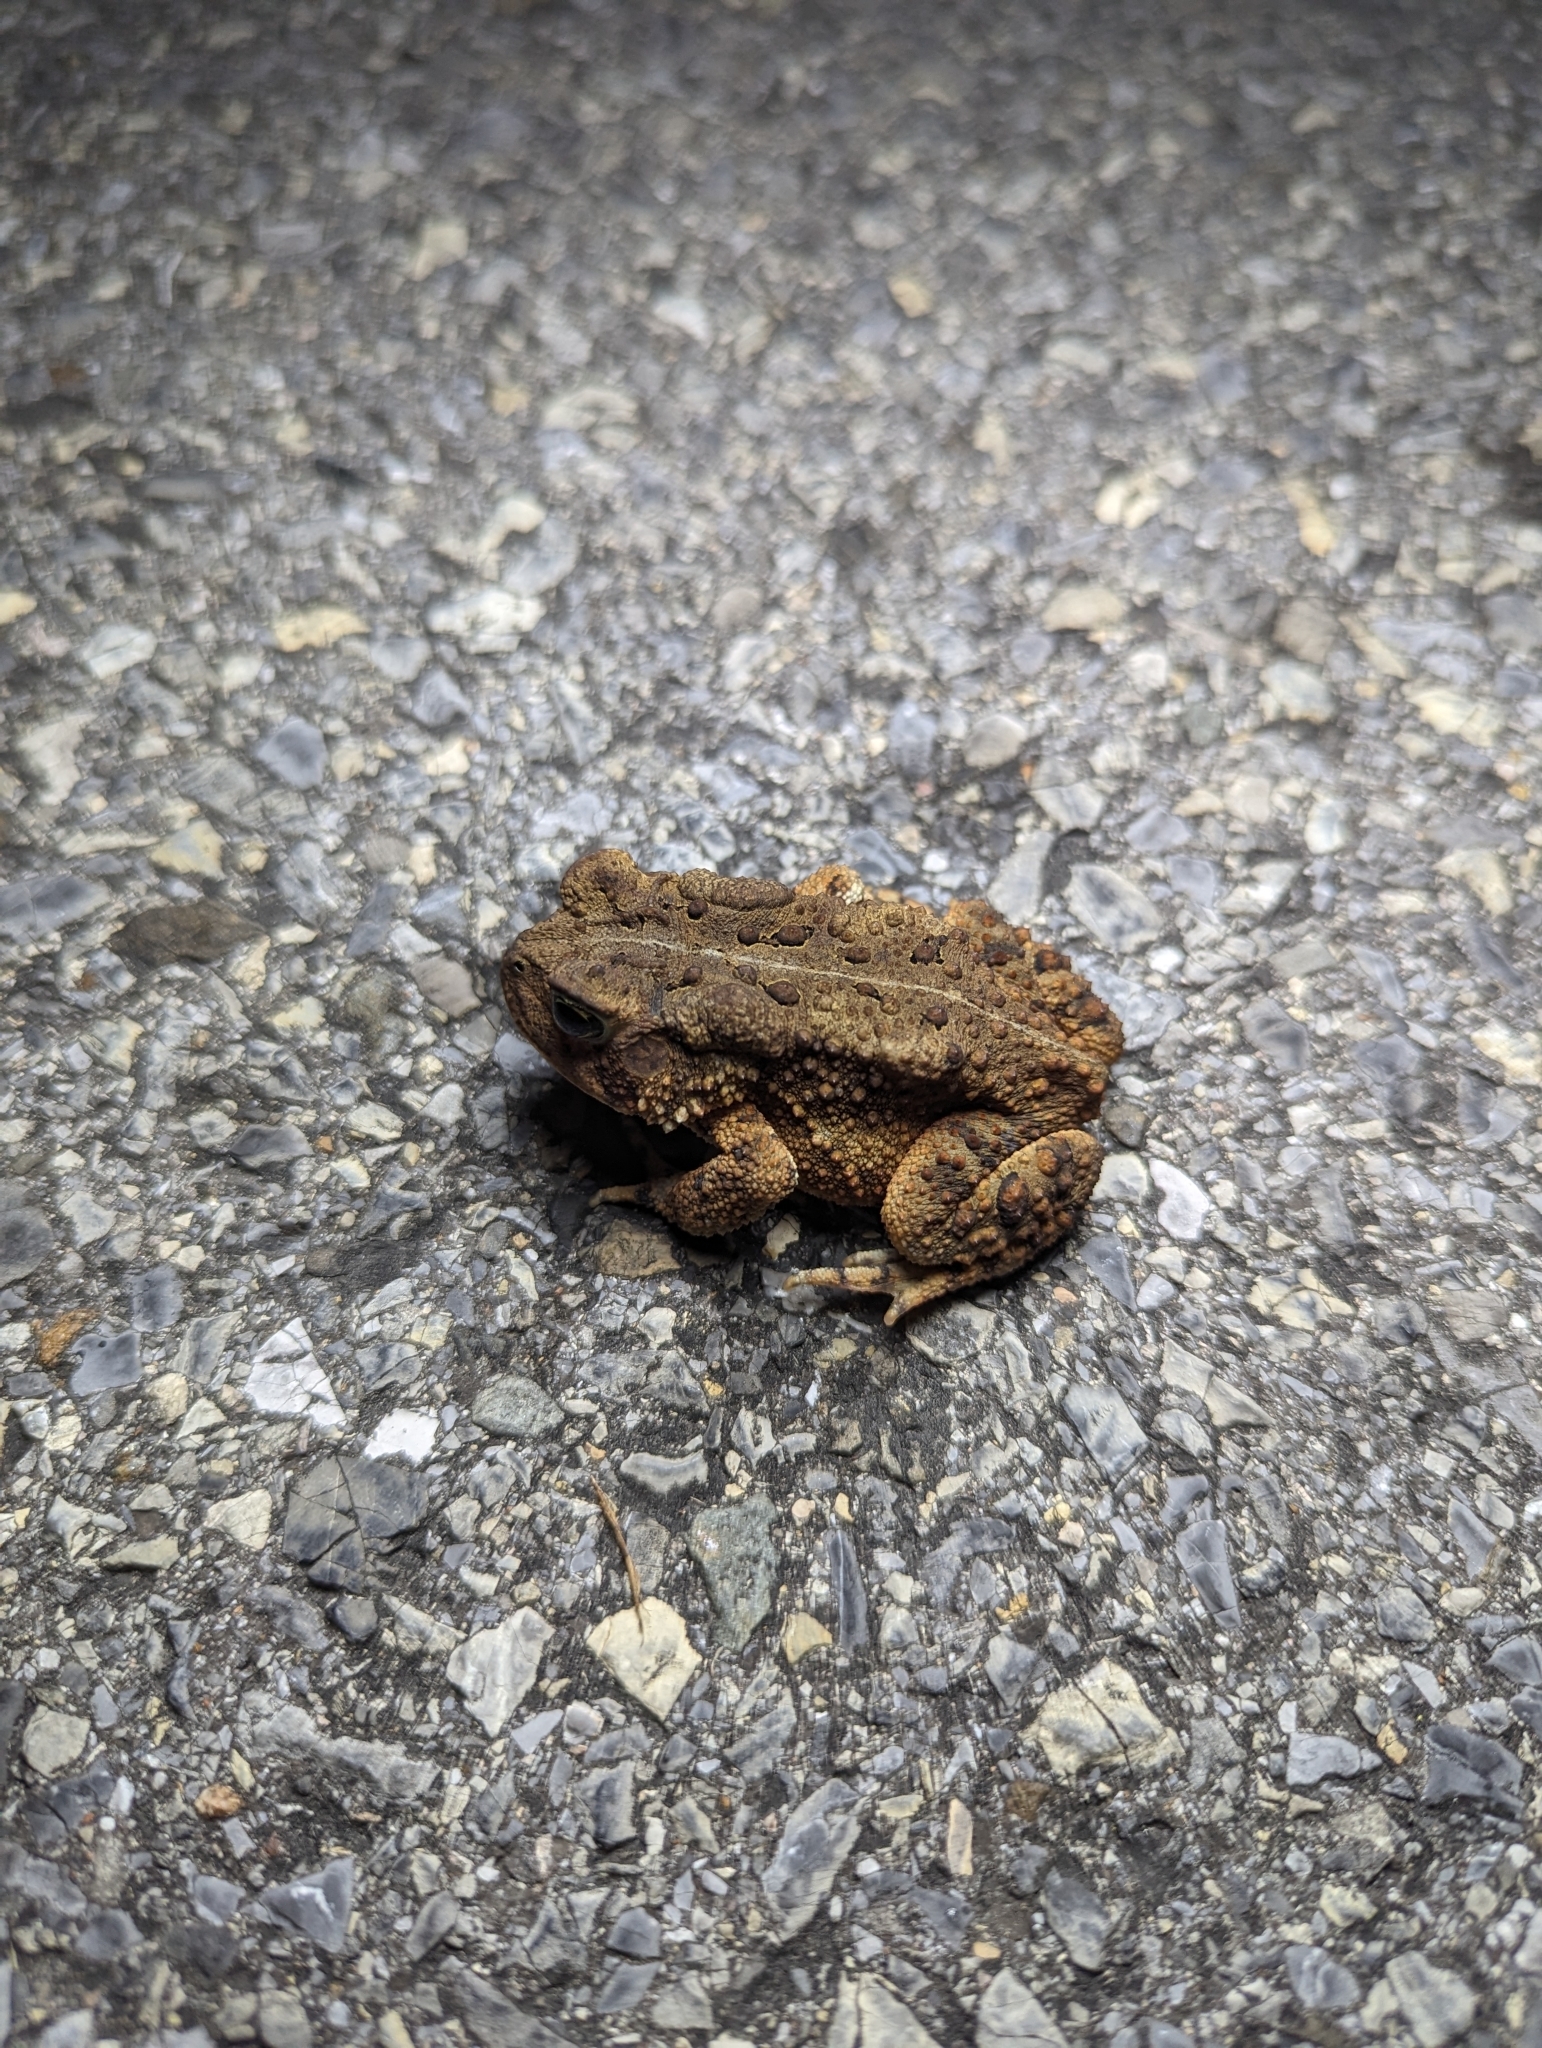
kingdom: Animalia
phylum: Chordata
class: Amphibia
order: Anura
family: Bufonidae
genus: Anaxyrus
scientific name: Anaxyrus americanus
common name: American toad
